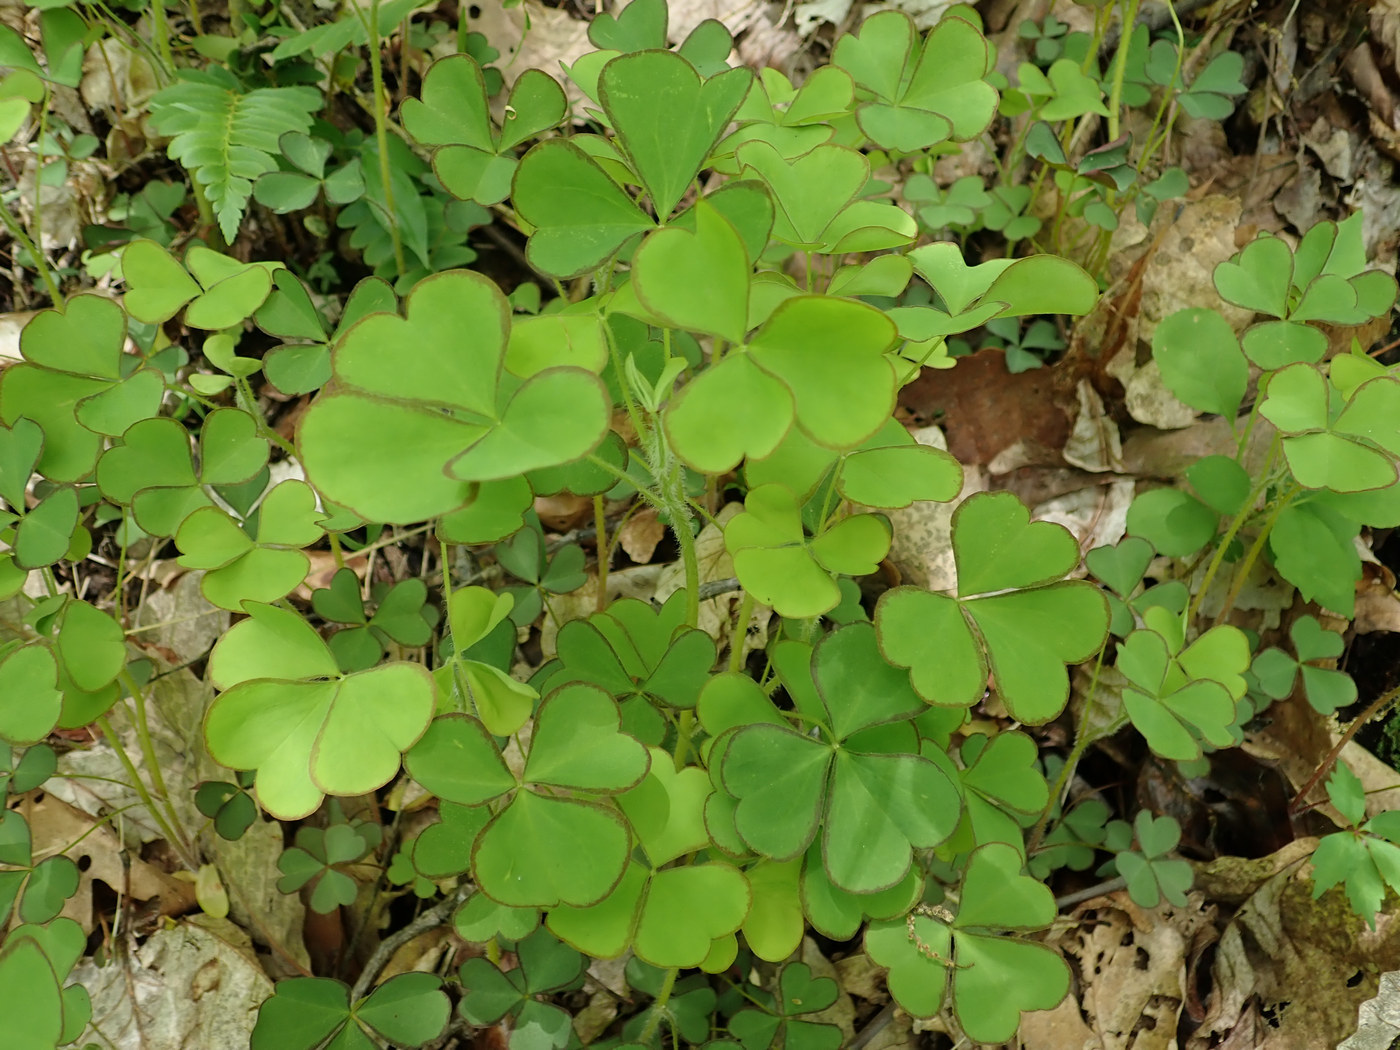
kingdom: Plantae
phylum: Tracheophyta
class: Magnoliopsida
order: Oxalidales
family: Oxalidaceae
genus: Oxalis
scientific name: Oxalis grandis
